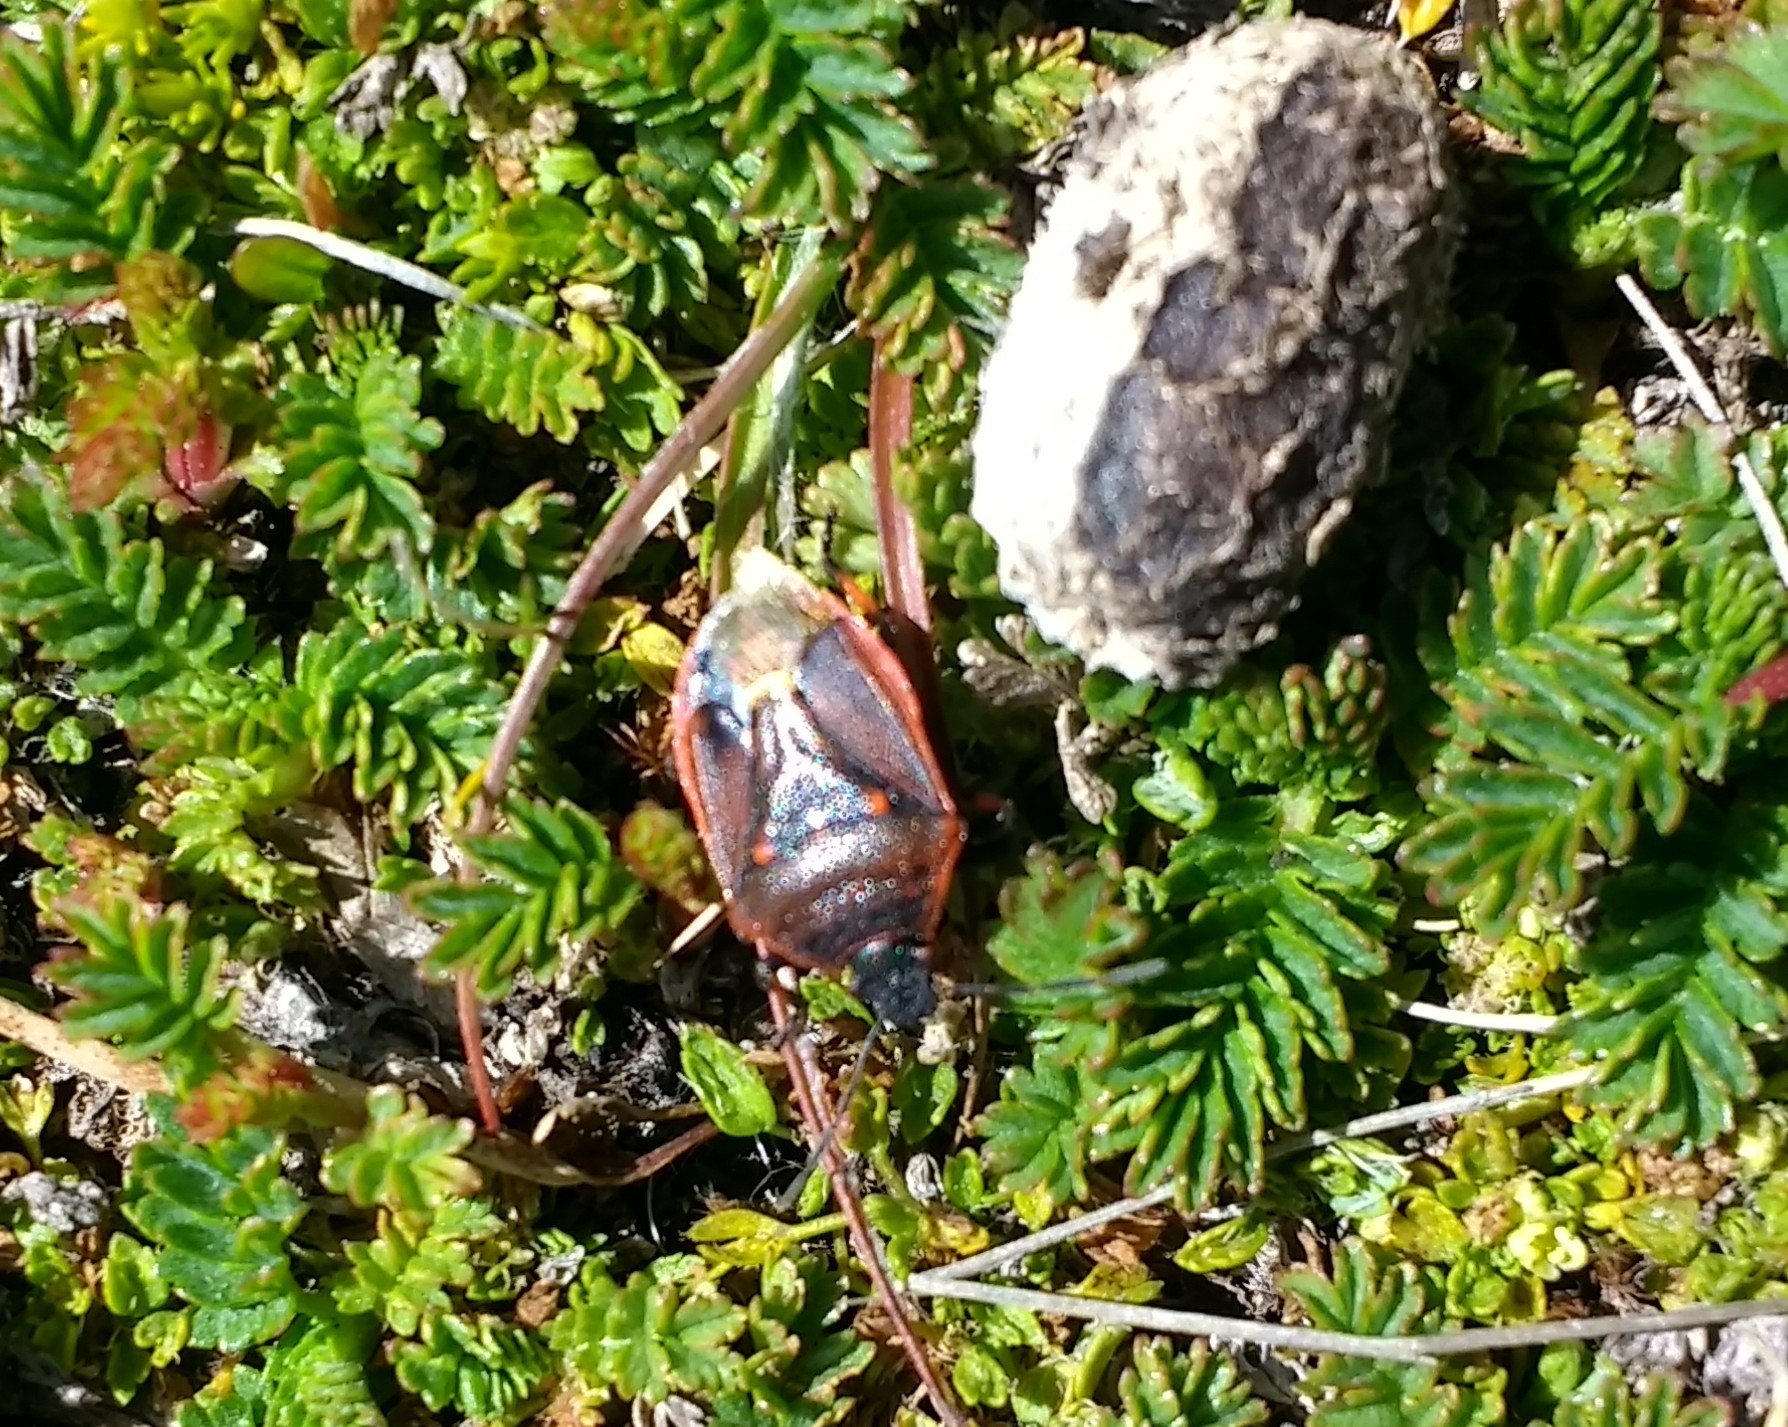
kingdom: Animalia
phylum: Arthropoda
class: Insecta
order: Hemiptera
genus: Parajalla
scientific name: Parajalla sanguineosignata
